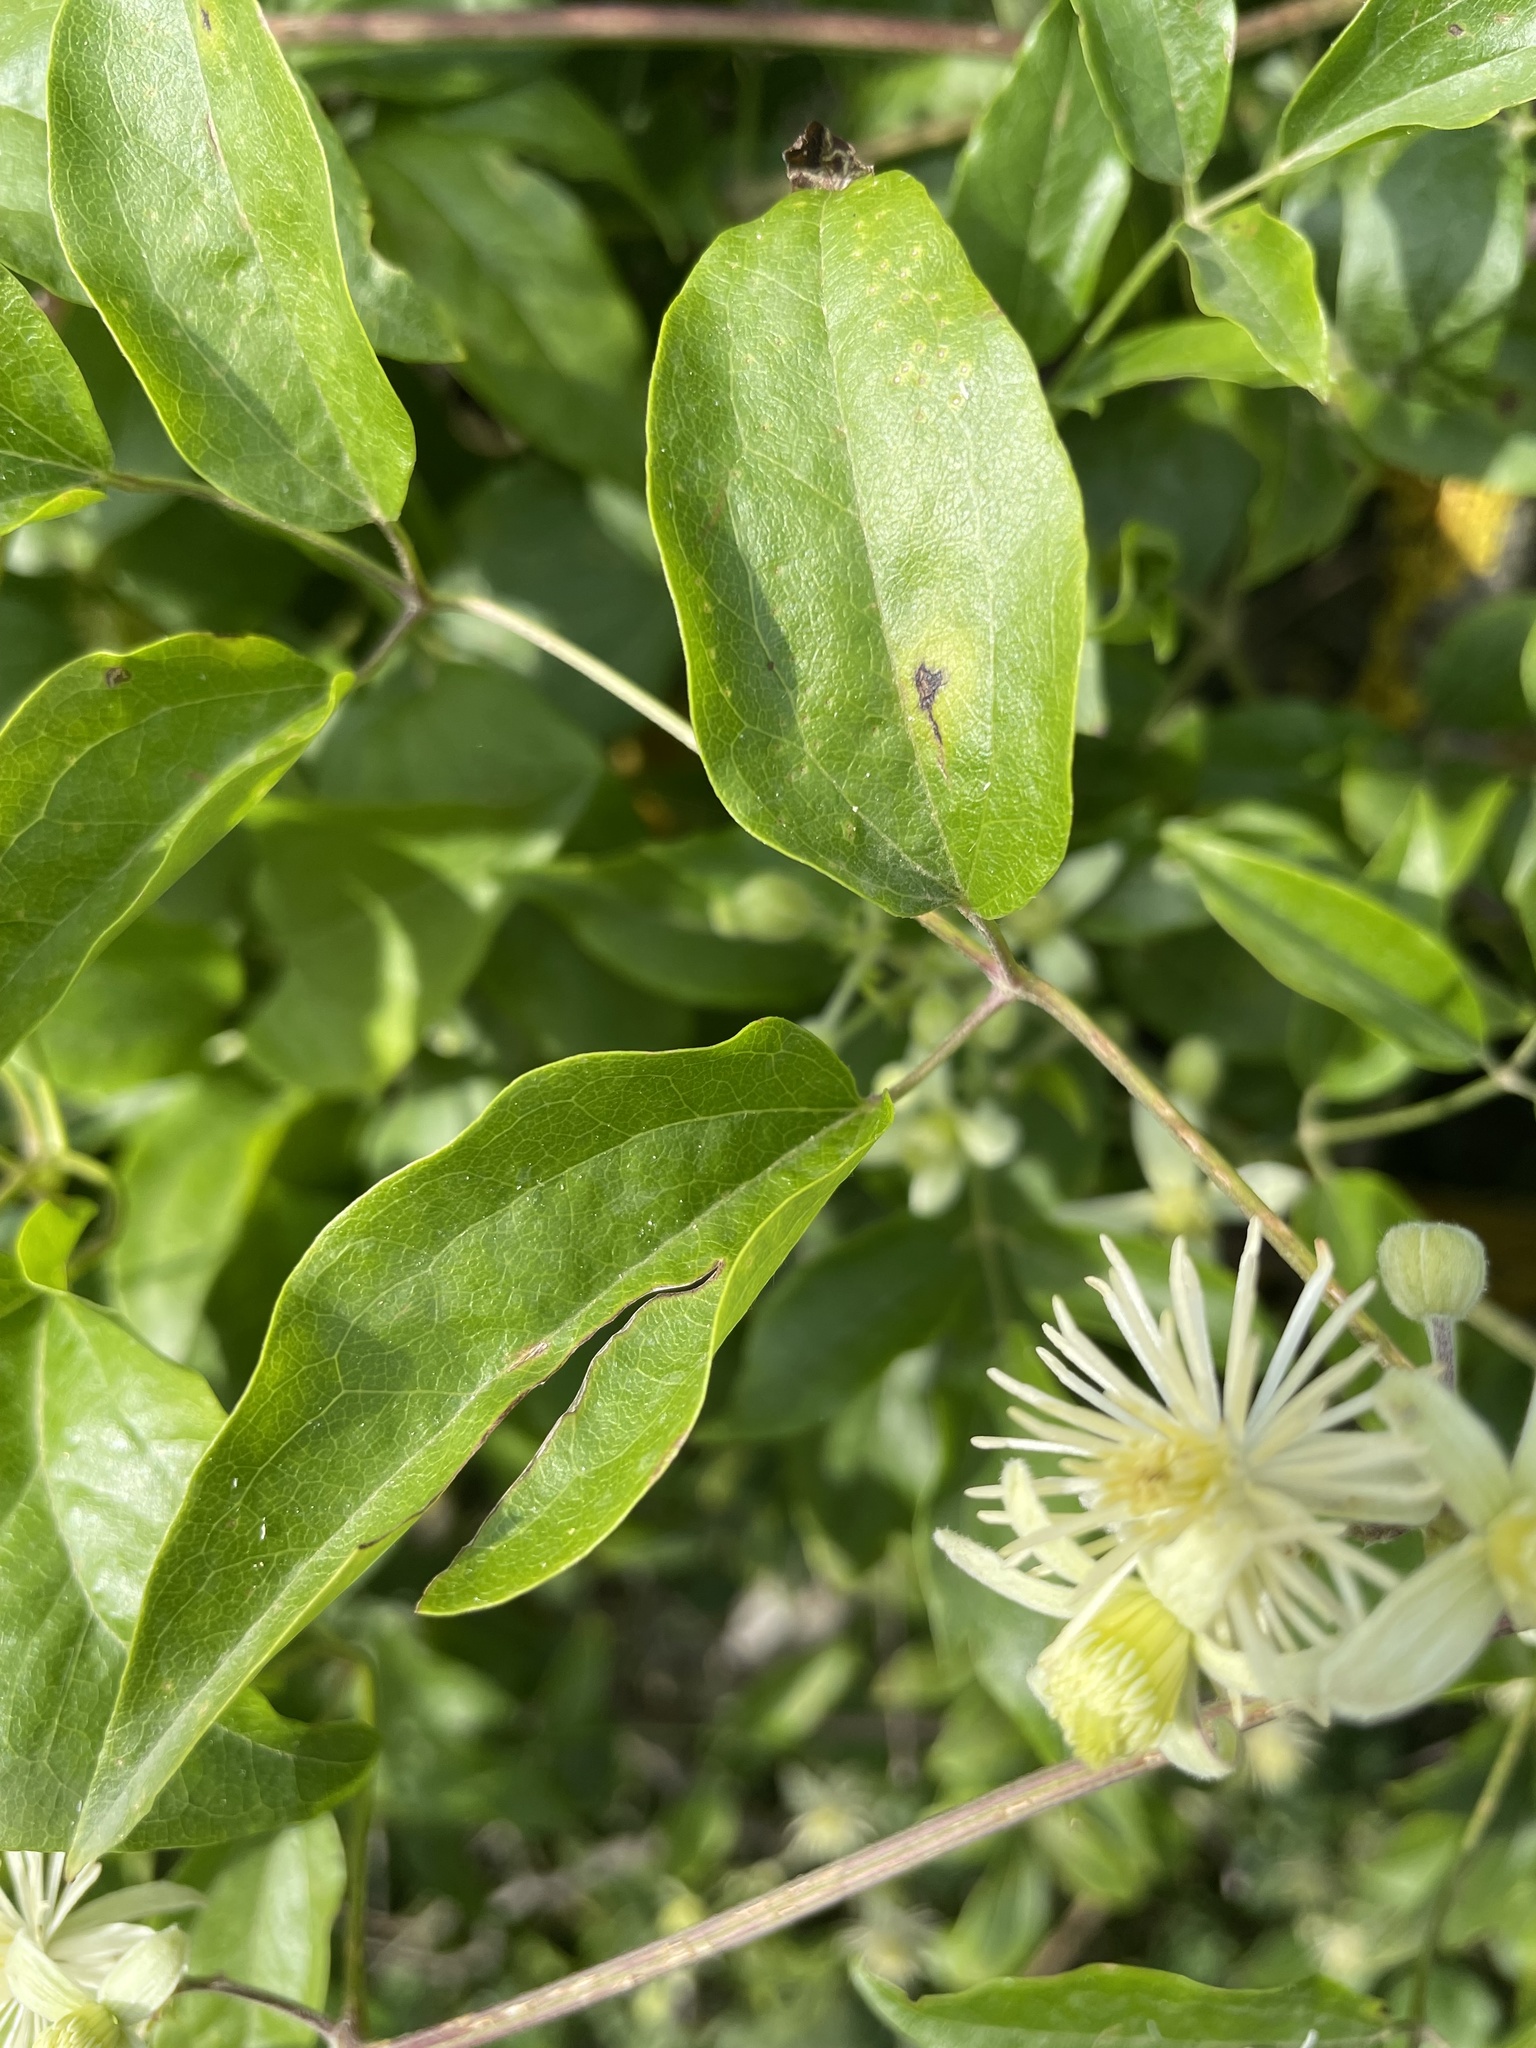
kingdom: Plantae
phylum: Tracheophyta
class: Magnoliopsida
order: Ranunculales
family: Ranunculaceae
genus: Clematis
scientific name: Clematis vitalba
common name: Evergreen clematis
